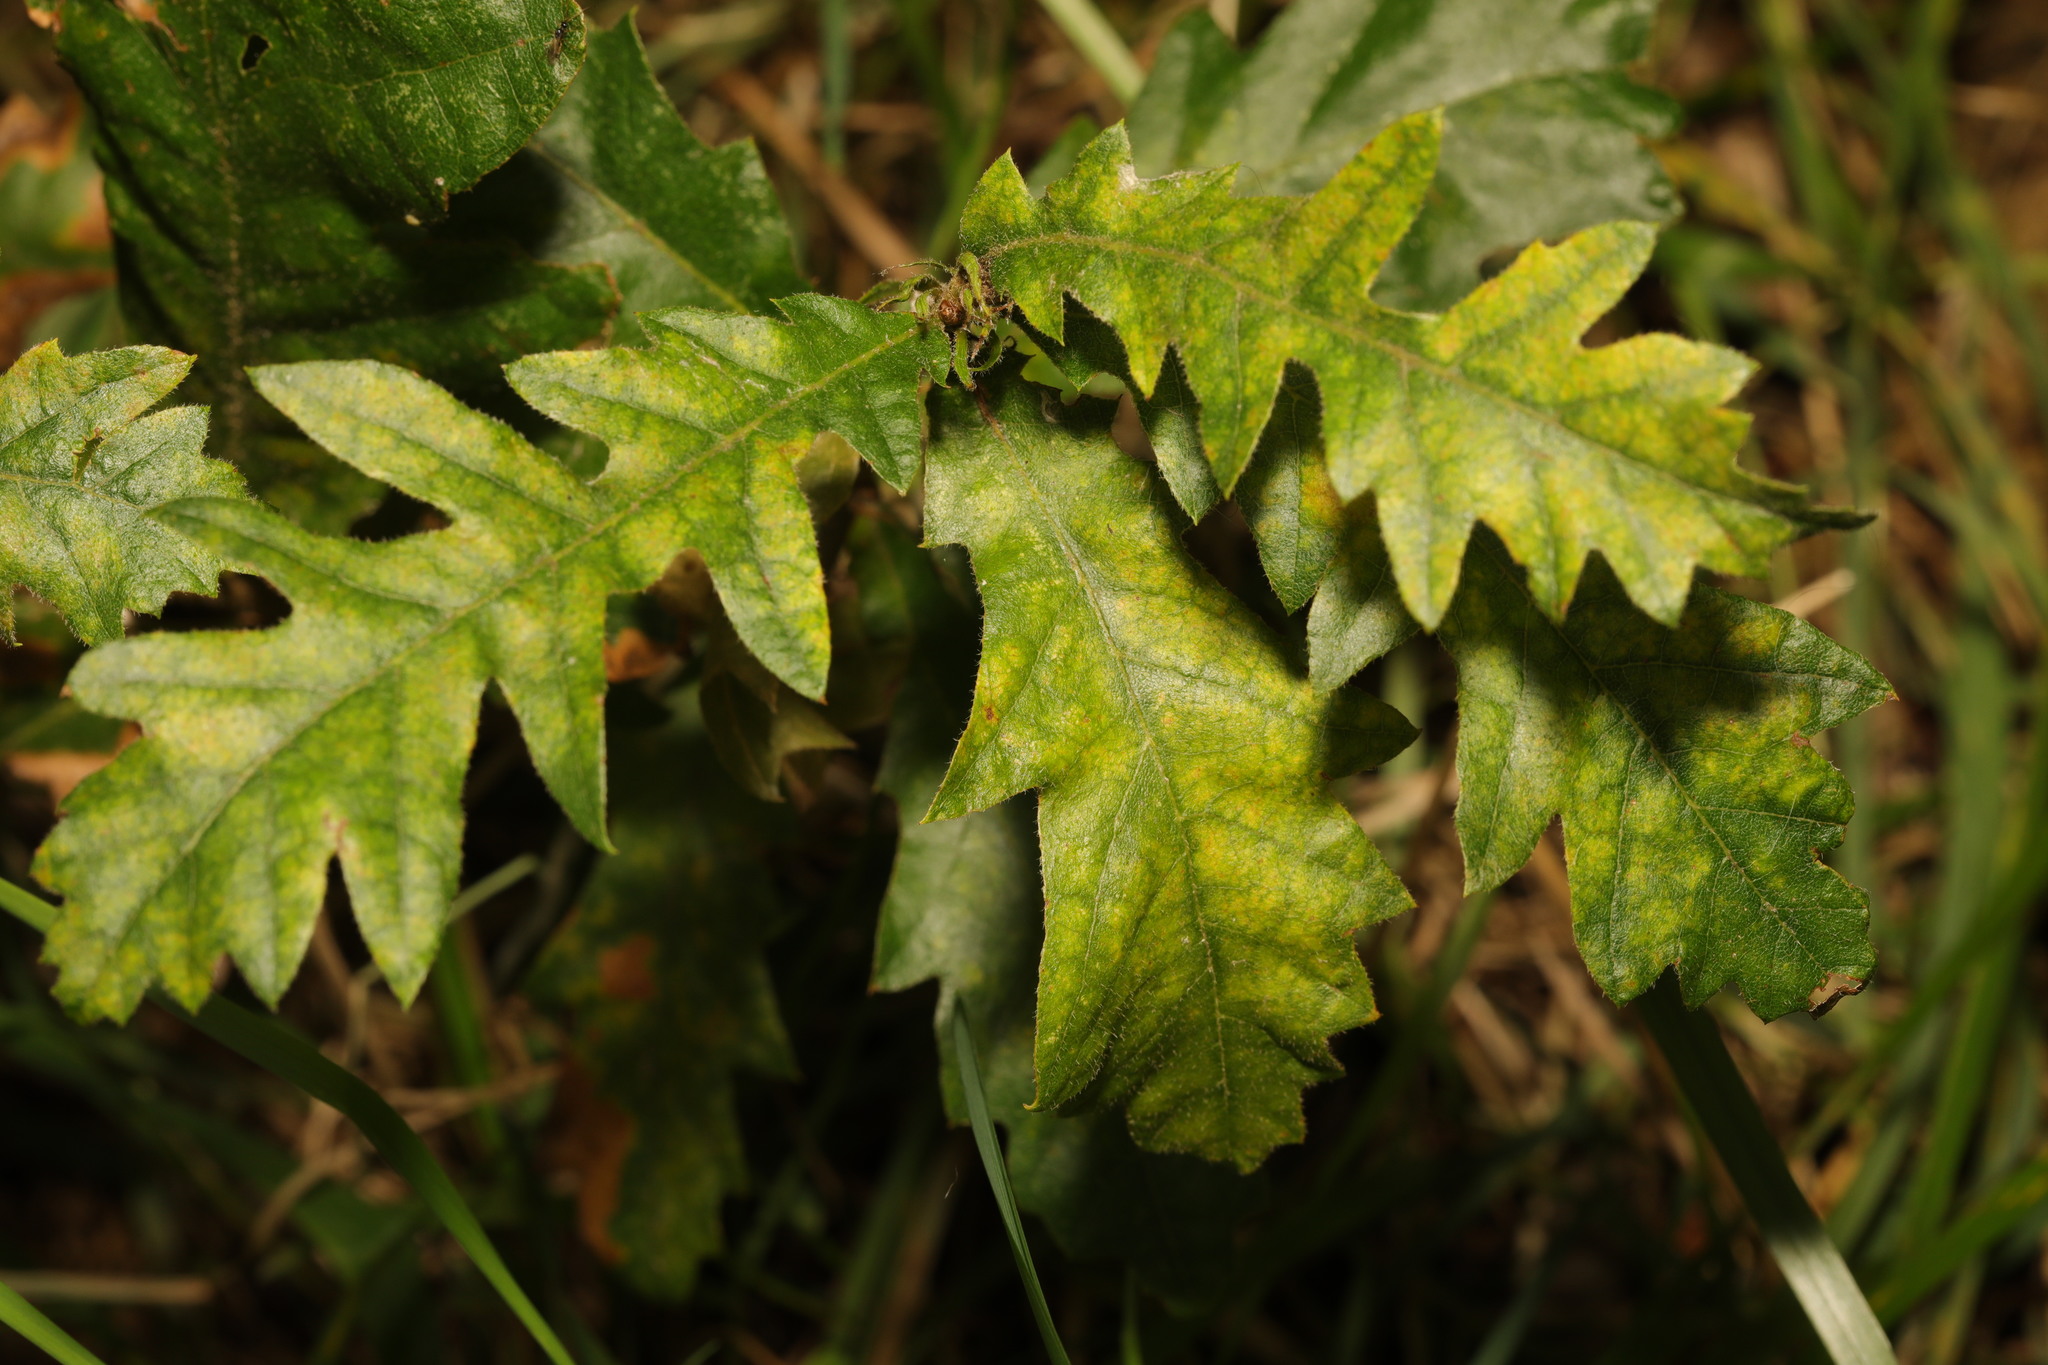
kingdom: Plantae
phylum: Tracheophyta
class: Magnoliopsida
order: Fagales
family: Fagaceae
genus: Quercus
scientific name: Quercus cerris
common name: Turkey oak
